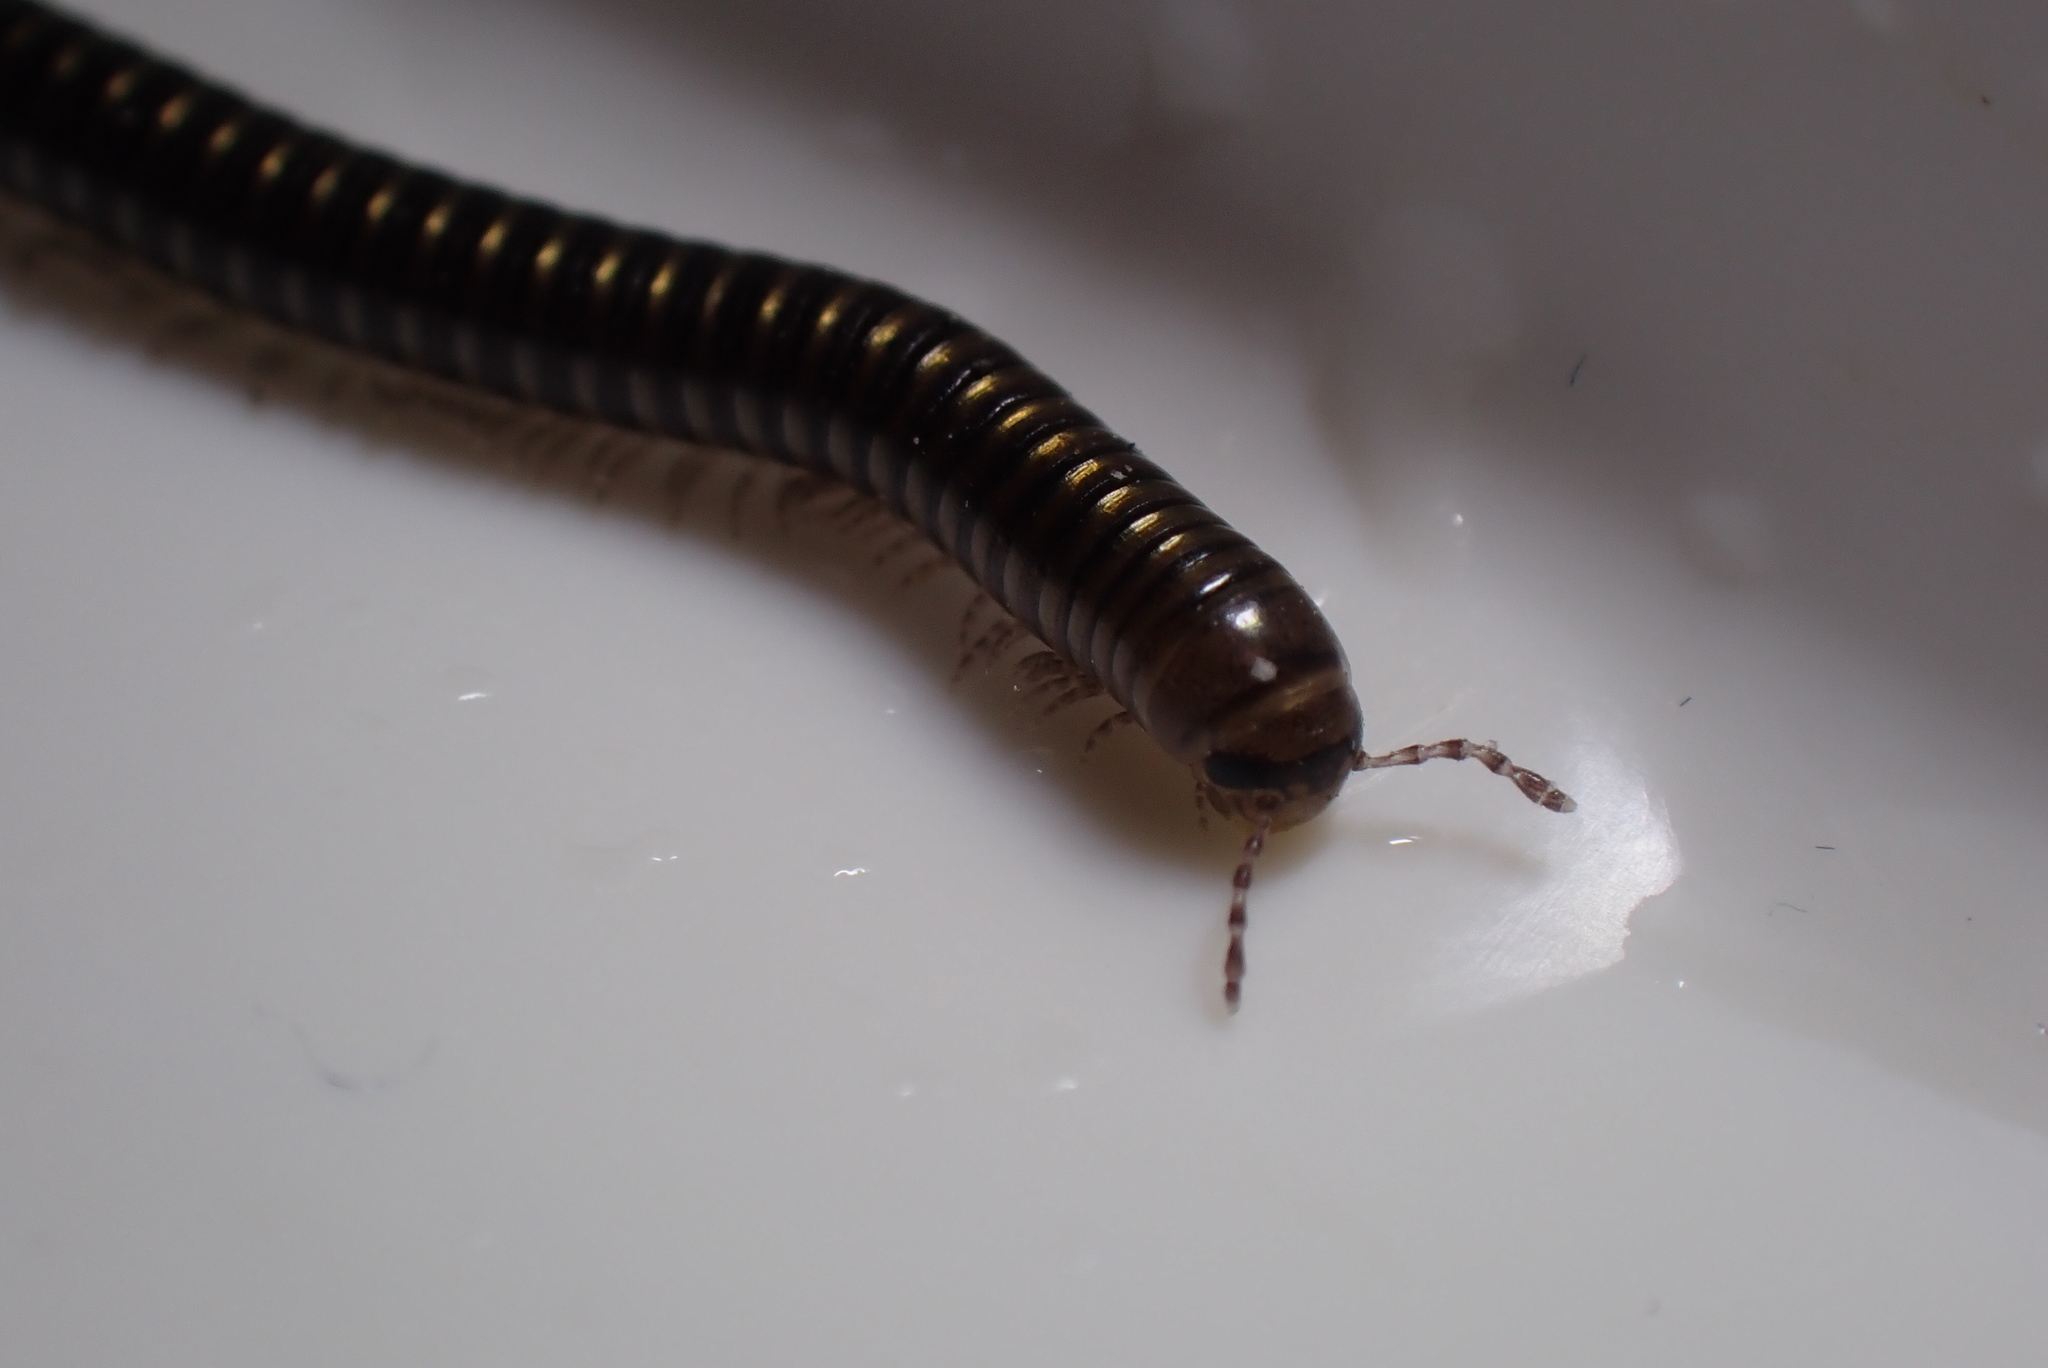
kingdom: Animalia
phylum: Arthropoda
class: Diplopoda
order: Julida
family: Julidae
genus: Cylindroiulus
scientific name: Cylindroiulus caeruleocinctus
